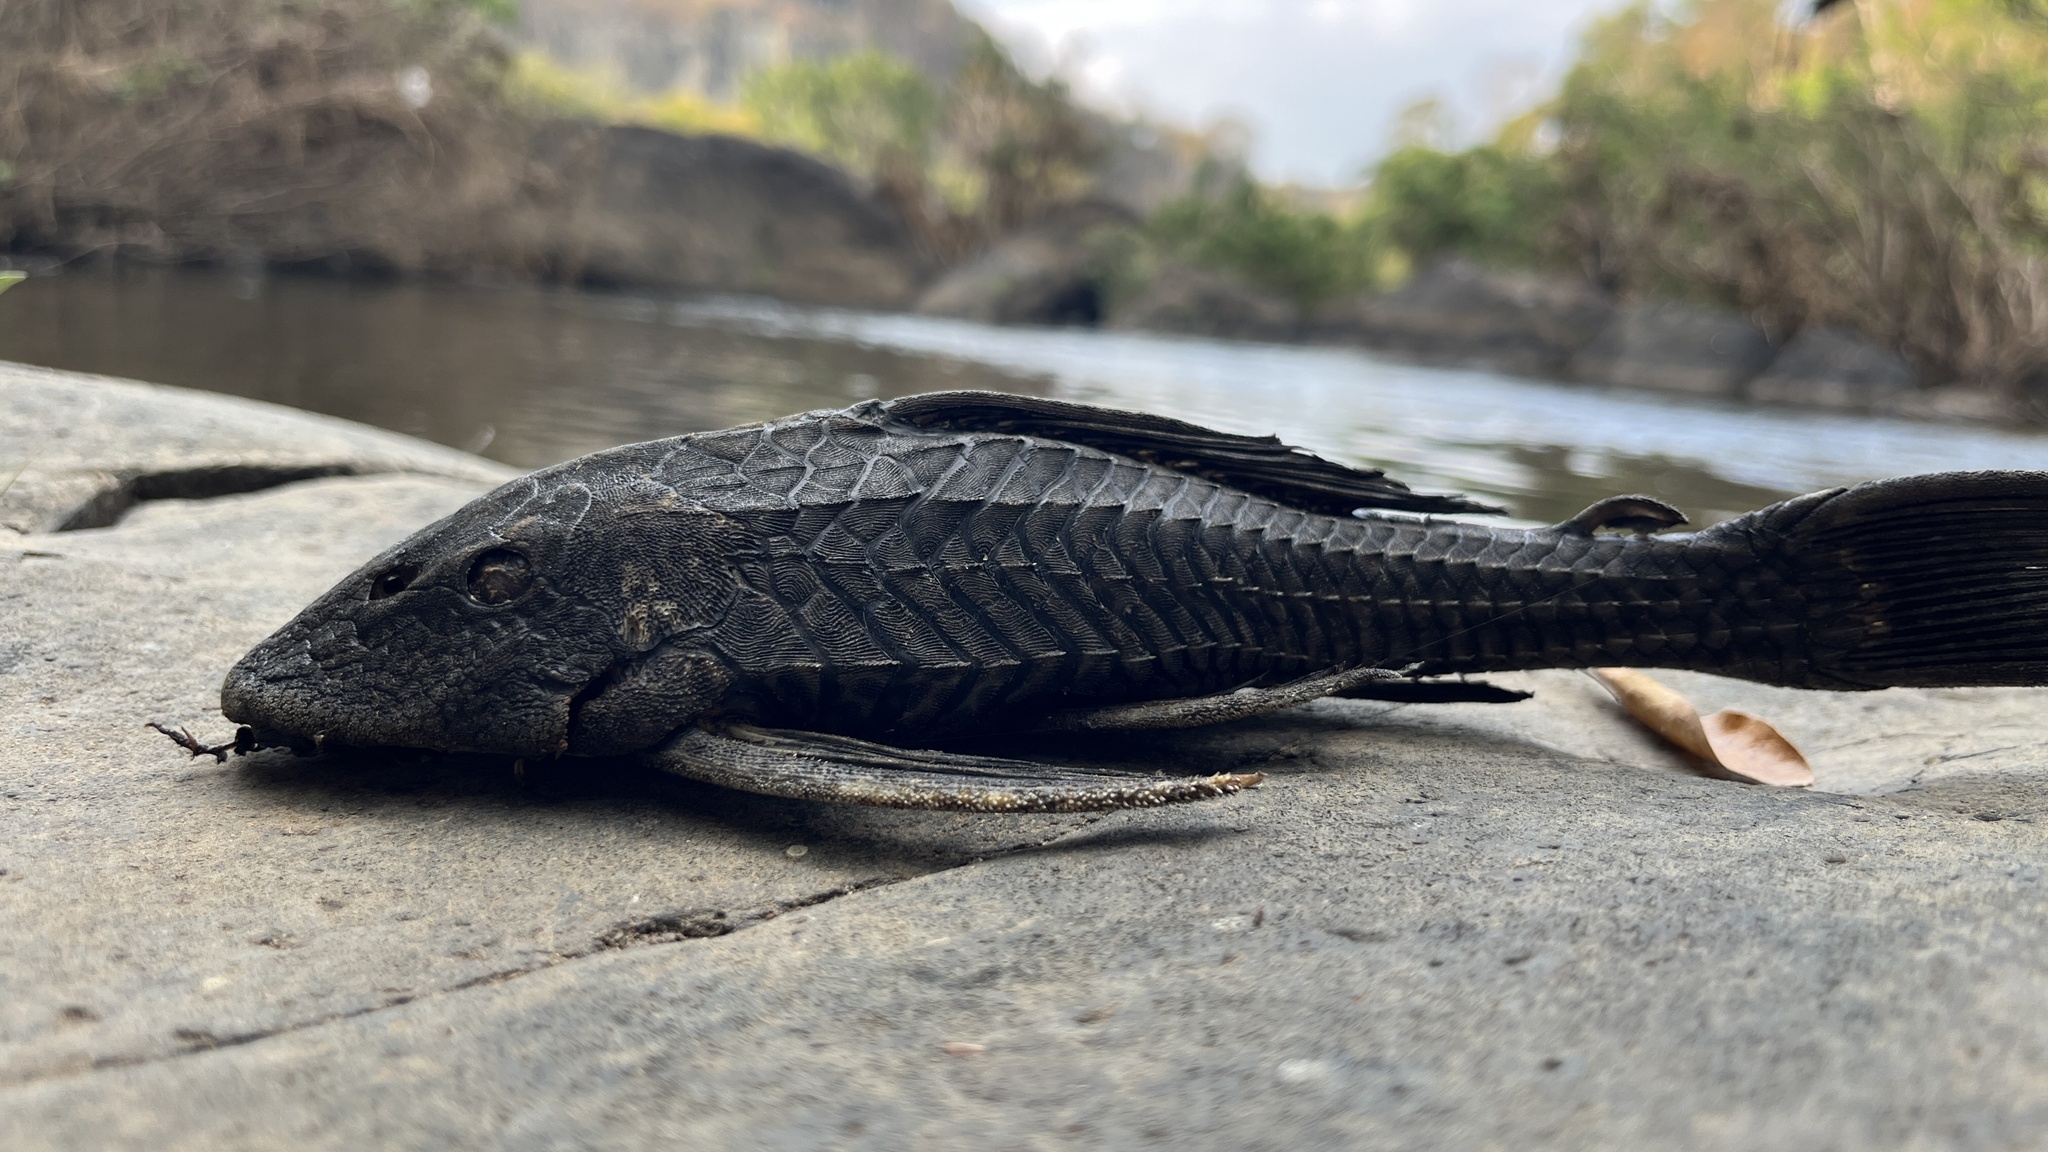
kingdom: Animalia
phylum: Chordata
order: Siluriformes
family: Loricariidae
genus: Pterygoplichthys
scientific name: Pterygoplichthys
